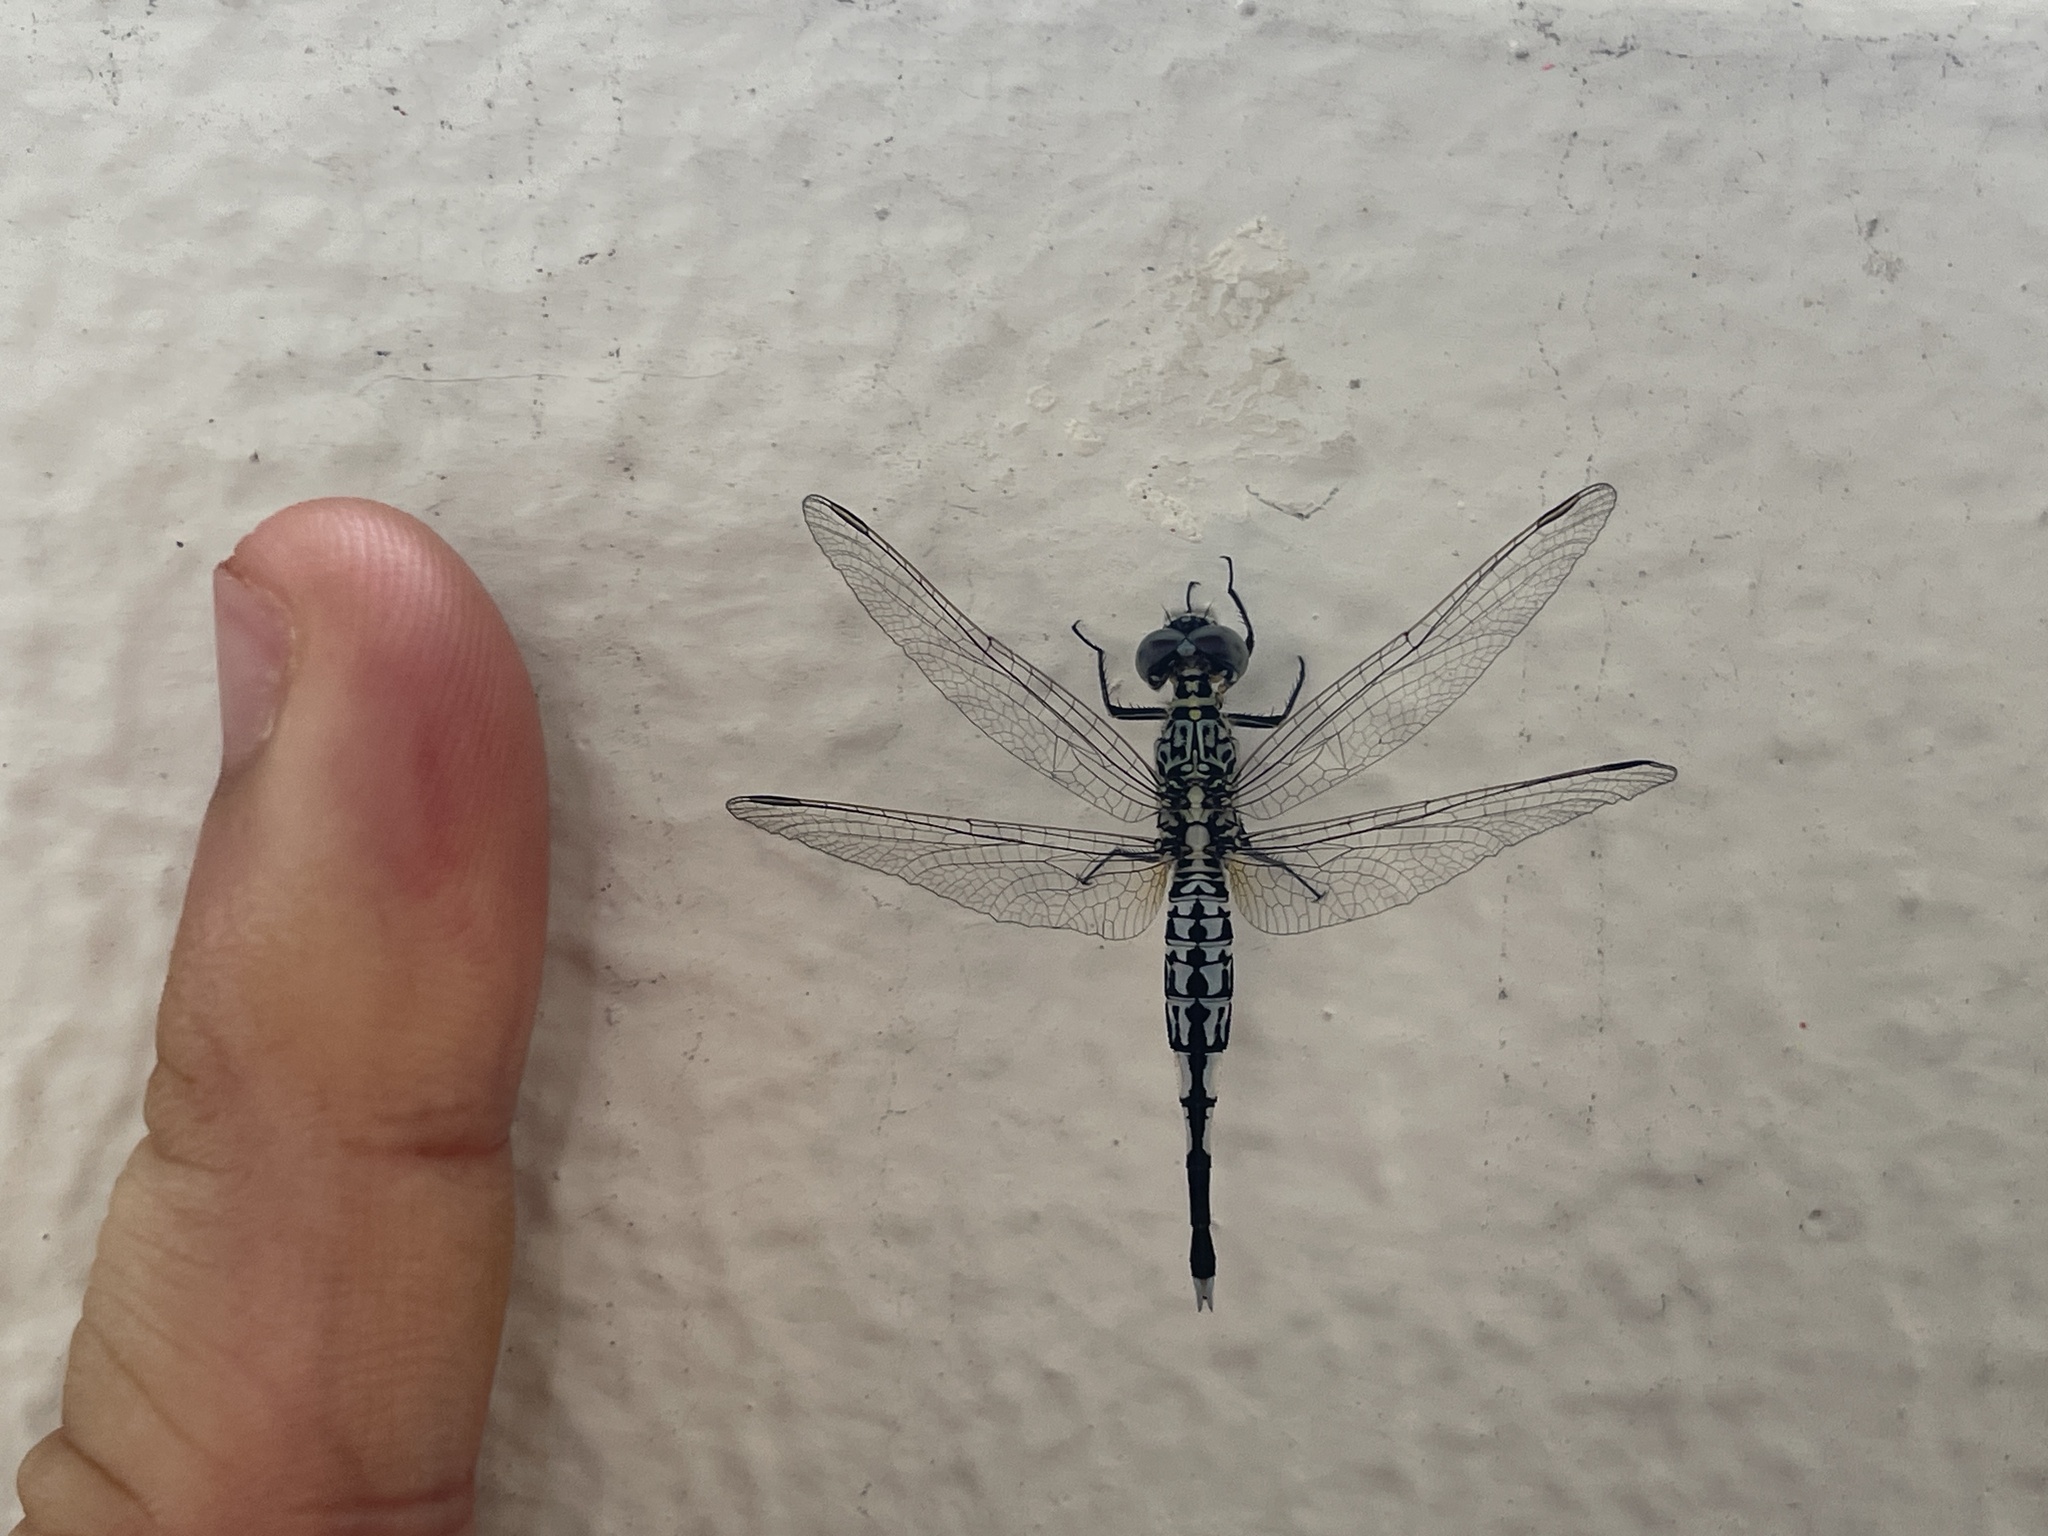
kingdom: Animalia
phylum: Arthropoda
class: Insecta
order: Odonata
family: Libellulidae
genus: Acisoma
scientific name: Acisoma panorpoides
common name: Asian pintail
